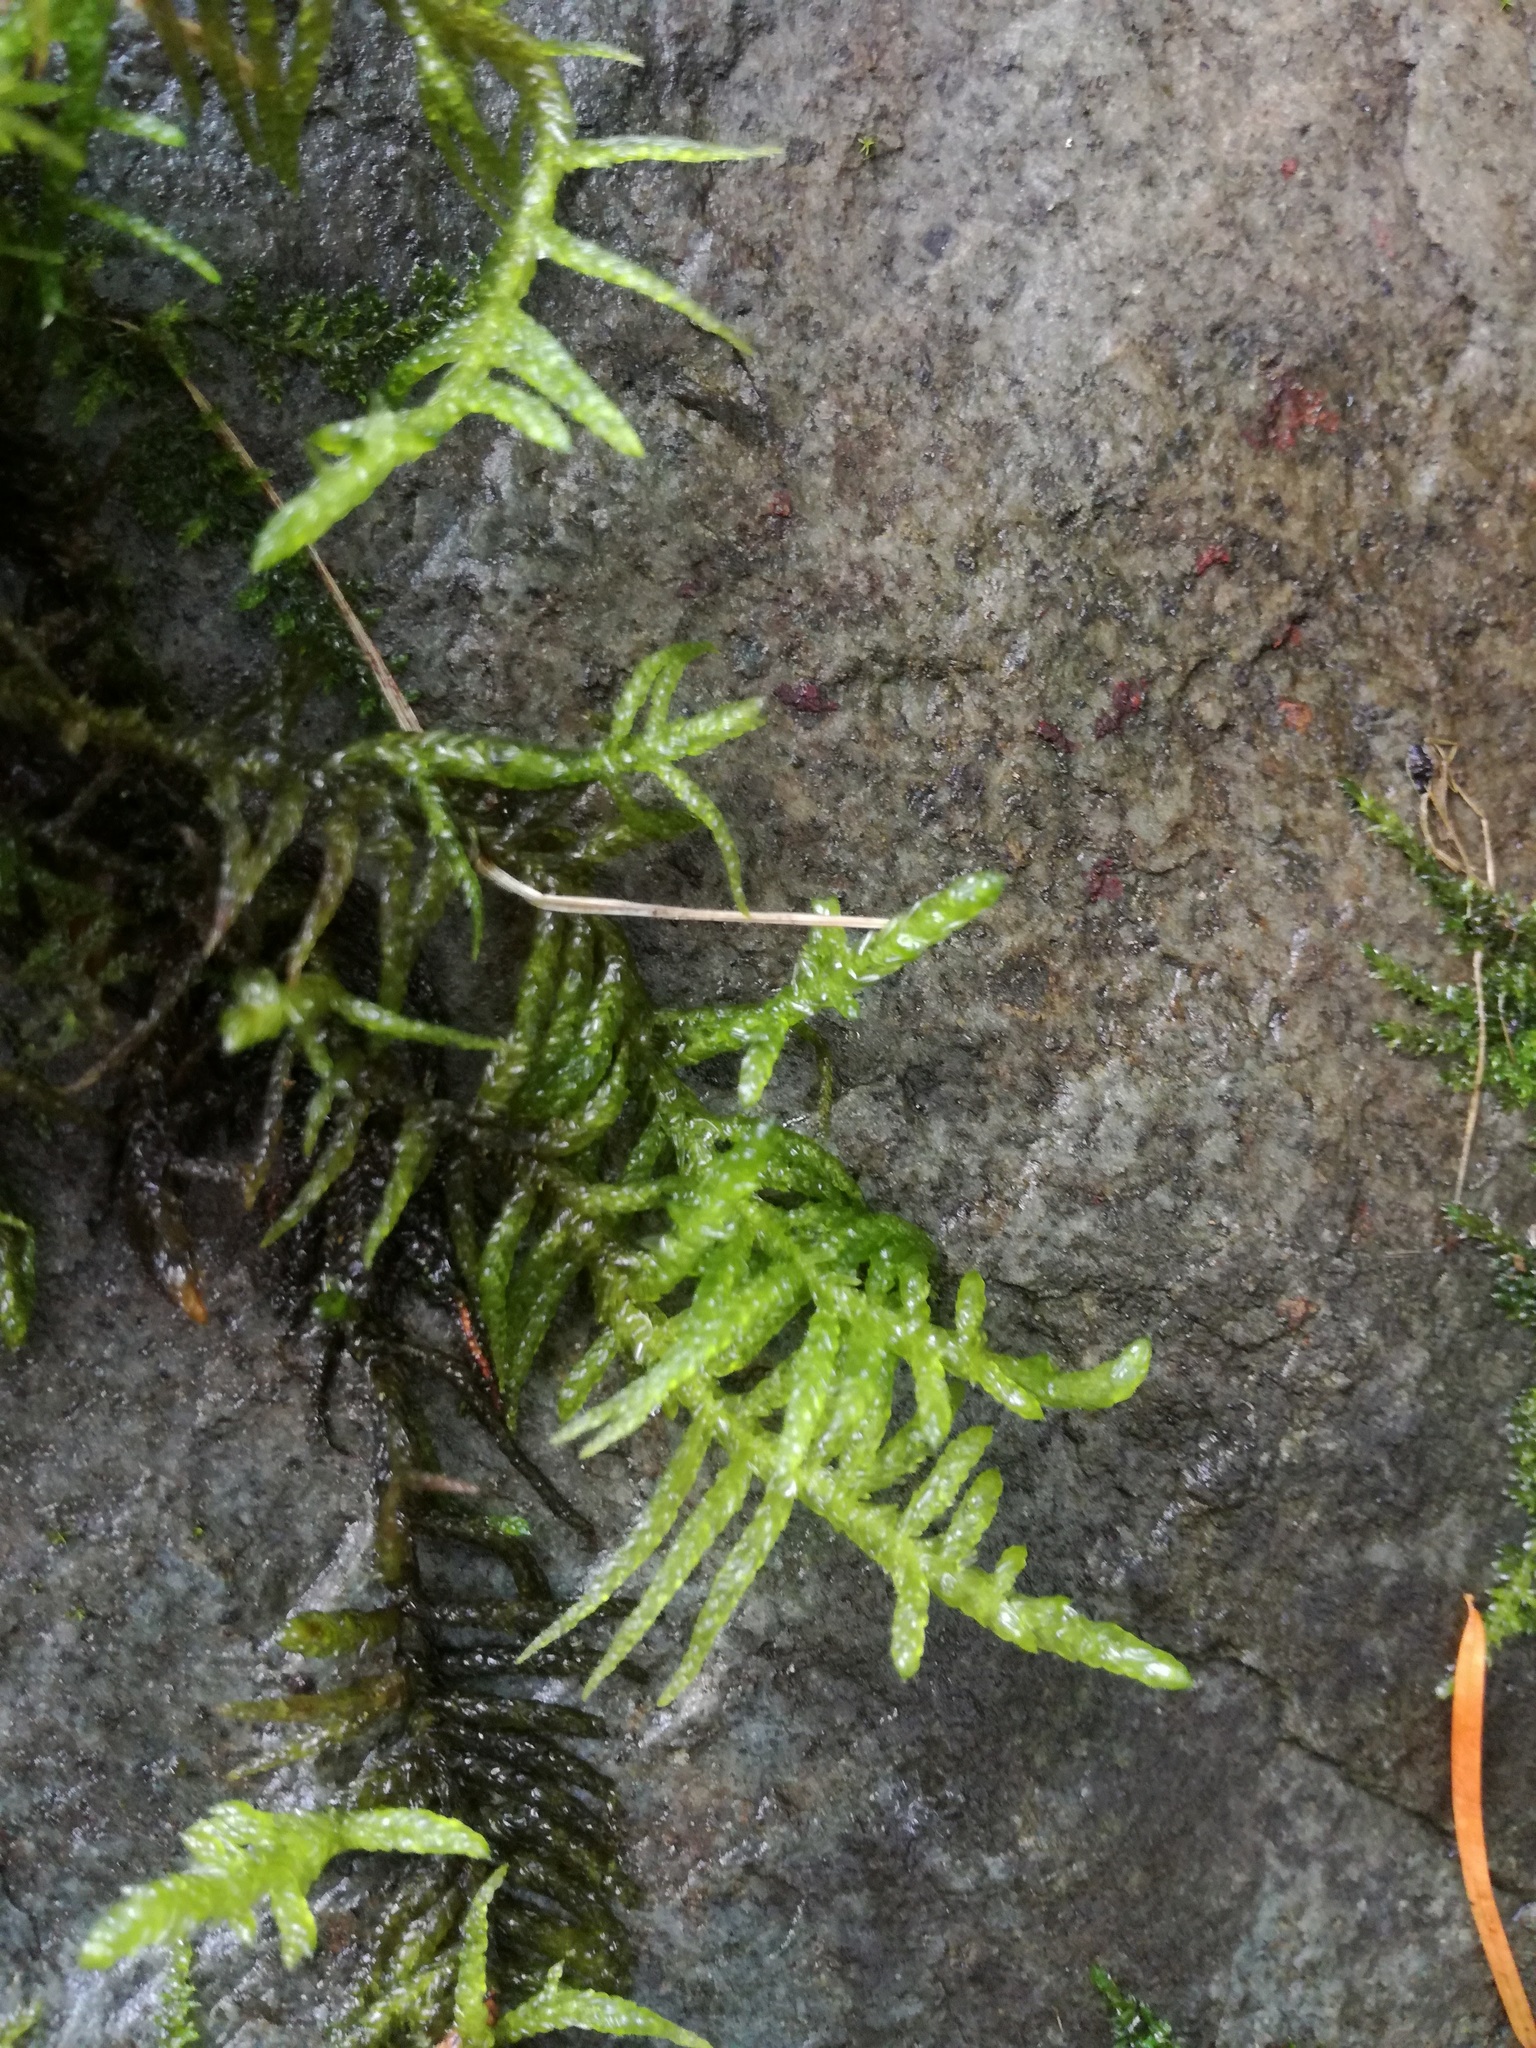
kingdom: Plantae
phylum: Bryophyta
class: Bryopsida
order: Hypnales
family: Brachytheciaceae
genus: Pseudoscleropodium
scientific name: Pseudoscleropodium purum
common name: Neat feather-moss
